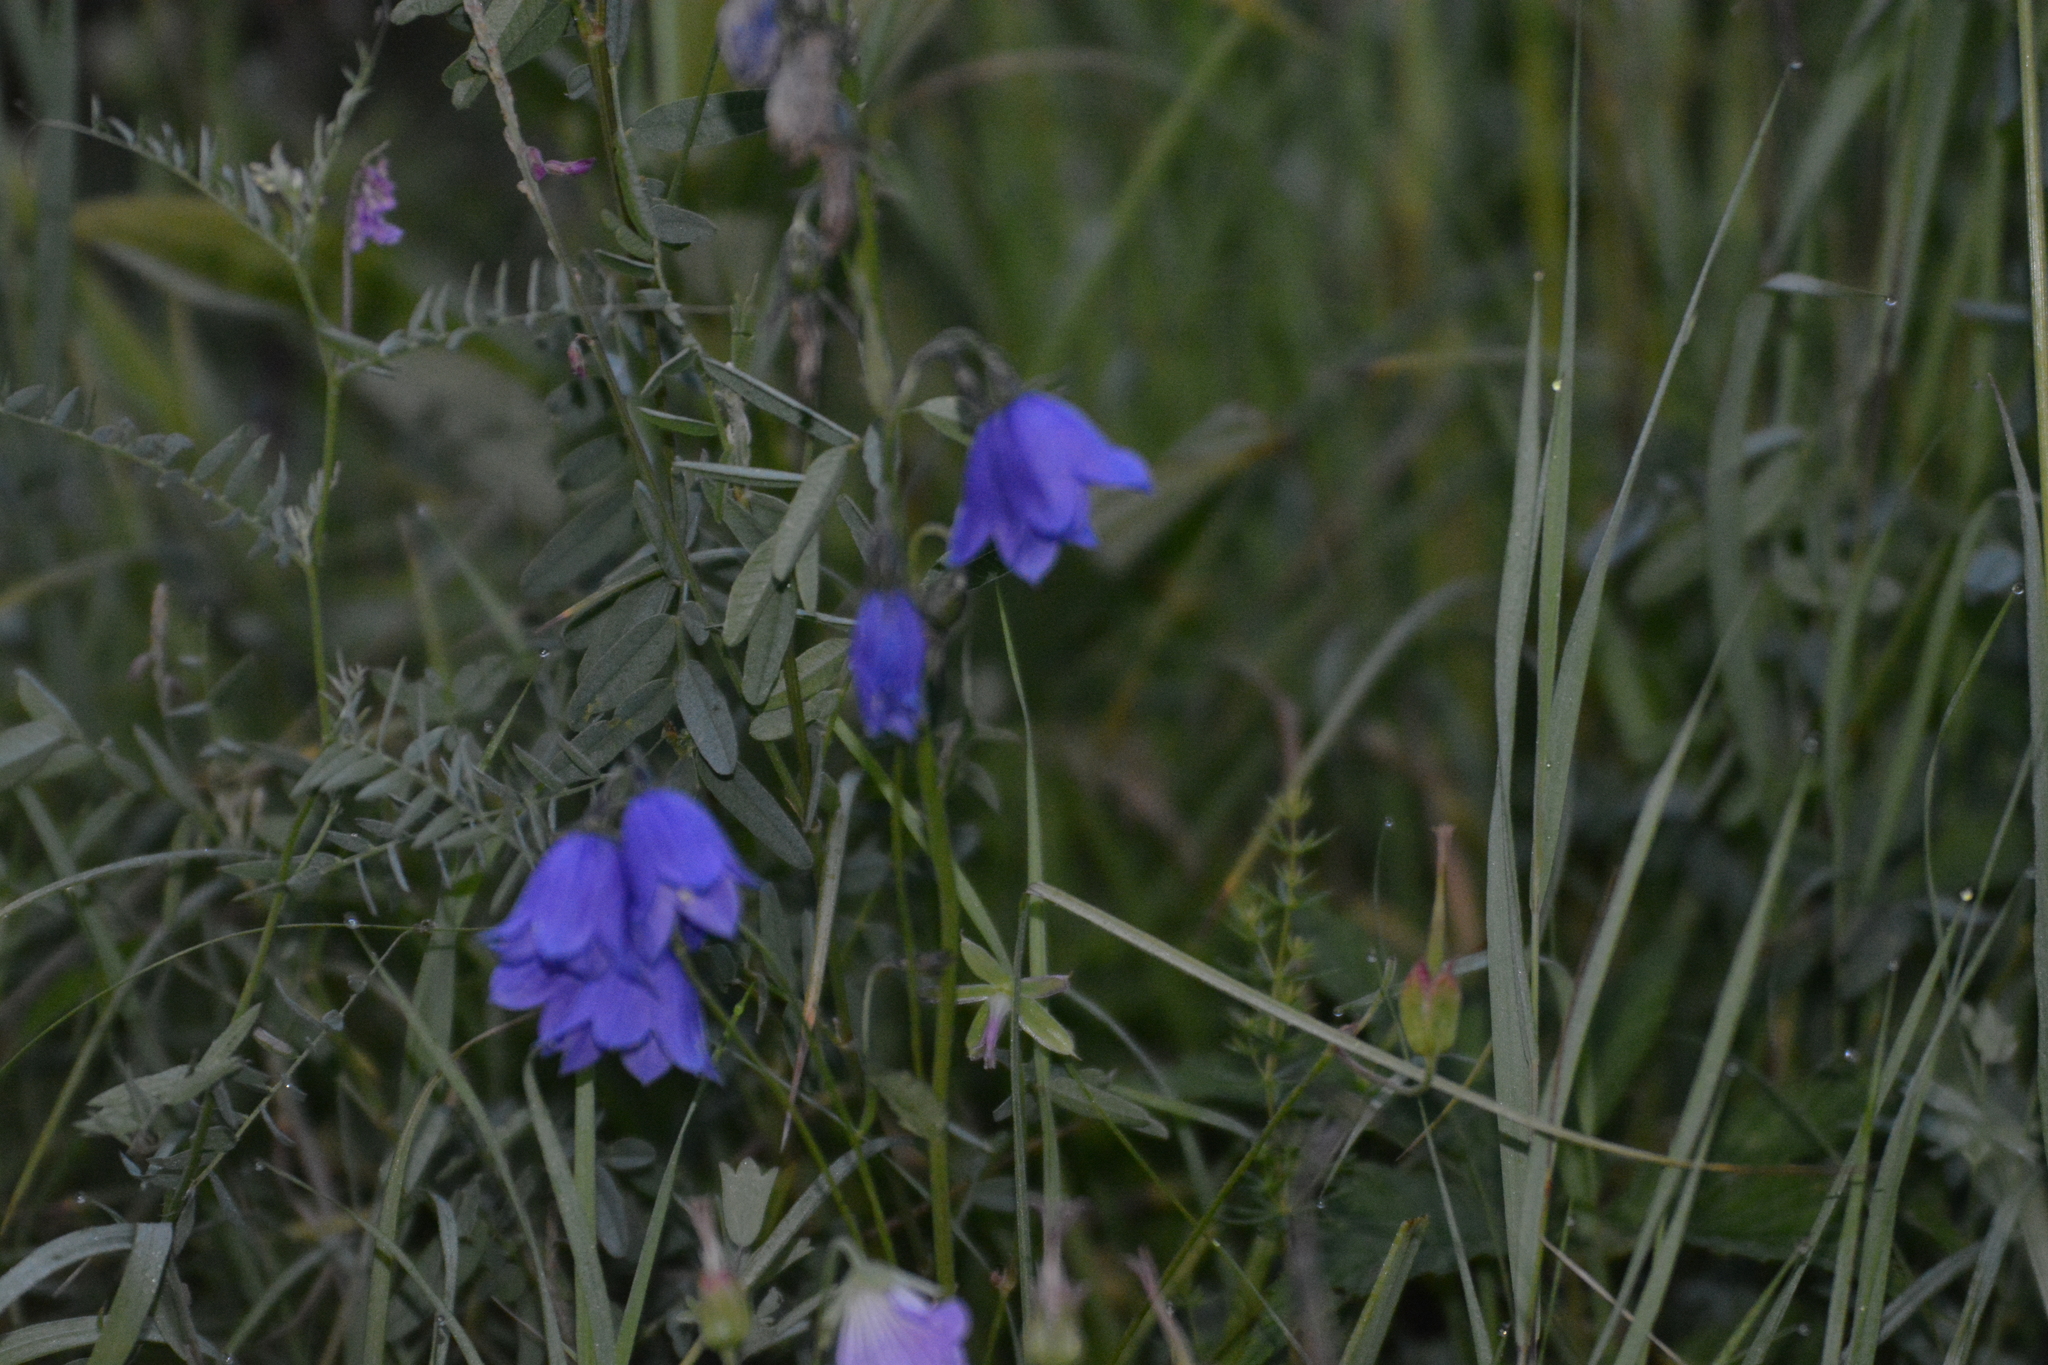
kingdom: Plantae
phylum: Tracheophyta
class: Magnoliopsida
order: Asterales
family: Campanulaceae
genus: Campanula
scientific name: Campanula rotundifolia
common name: Harebell
